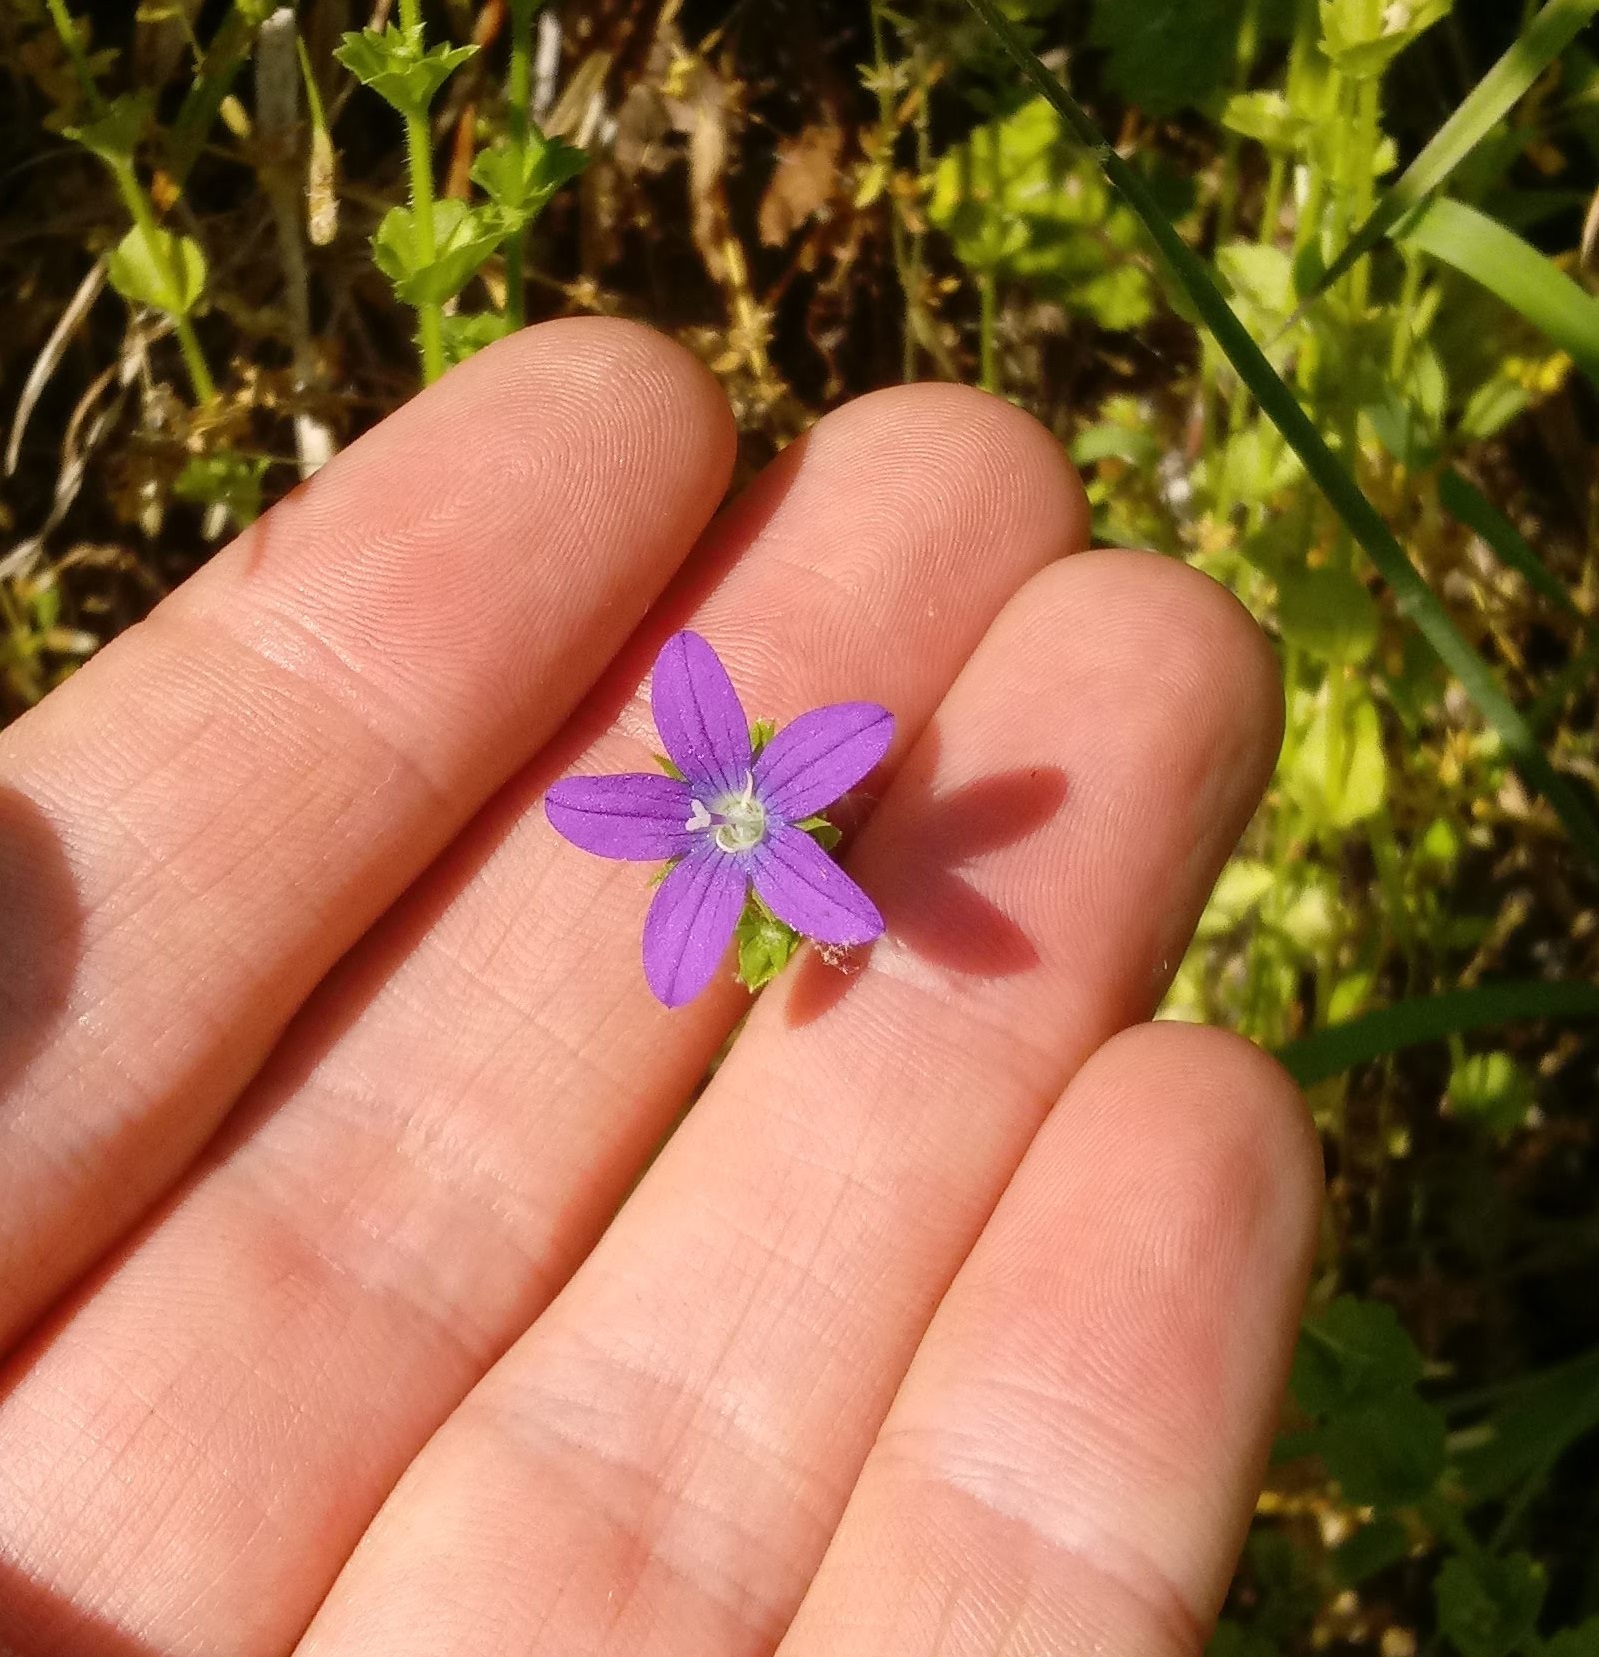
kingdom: Plantae
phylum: Tracheophyta
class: Magnoliopsida
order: Asterales
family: Campanulaceae
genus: Triodanis
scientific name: Triodanis perfoliata
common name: Clasping venus' looking-glass
